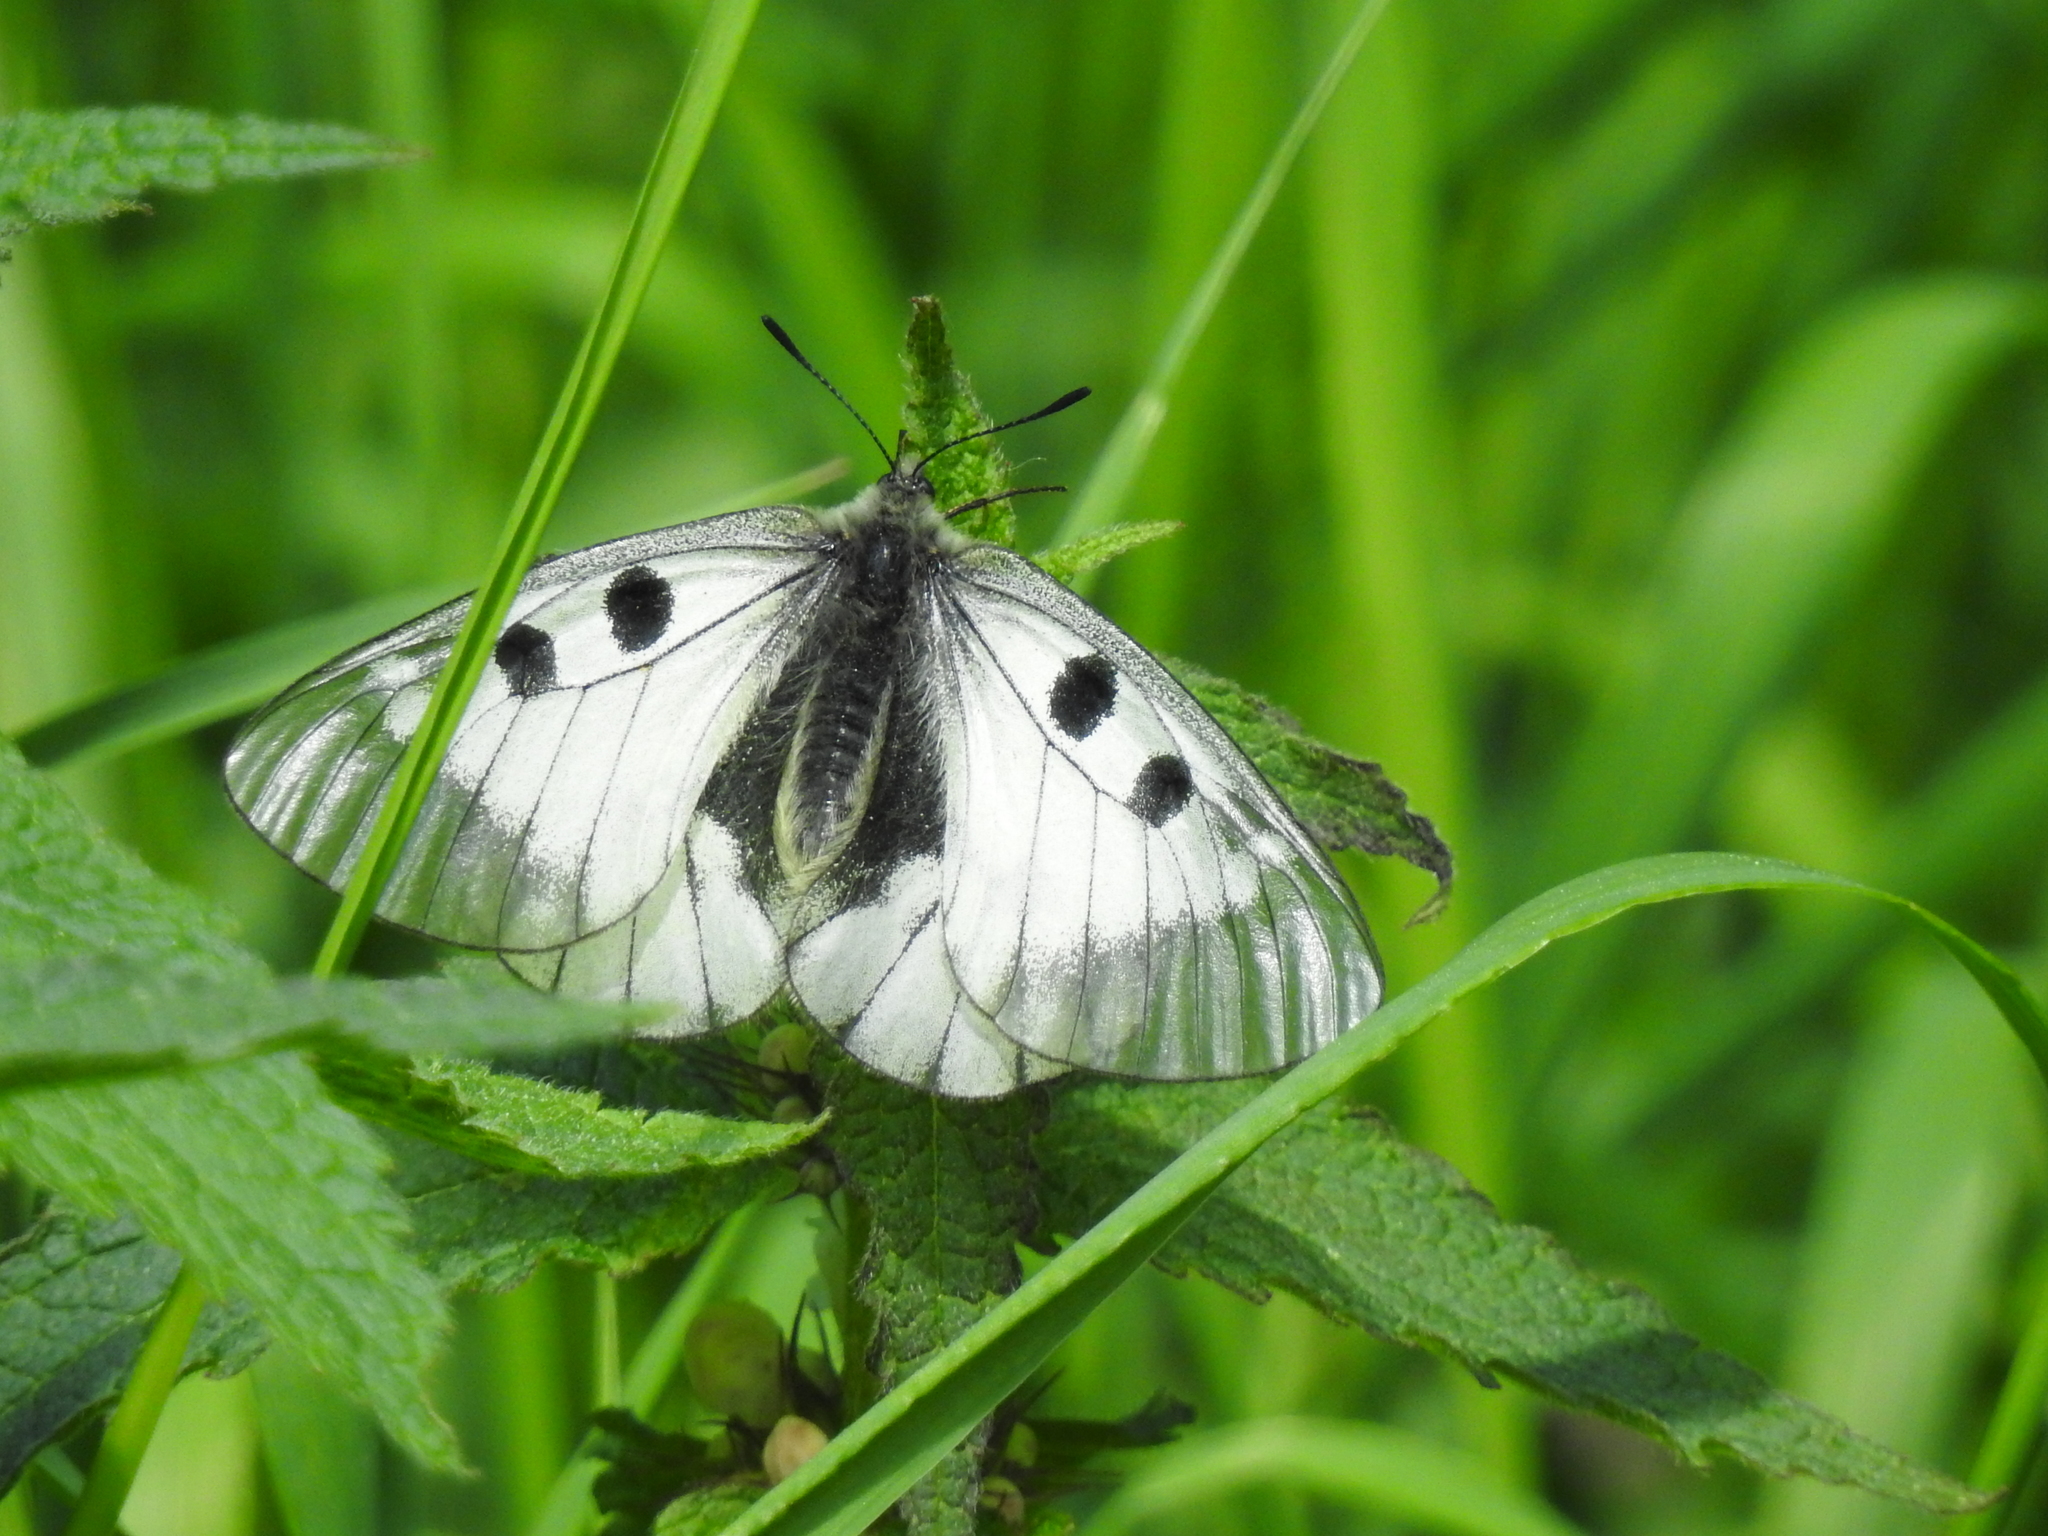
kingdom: Animalia
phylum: Arthropoda
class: Insecta
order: Lepidoptera
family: Papilionidae
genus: Parnassius
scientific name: Parnassius mnemosyne
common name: Clouded apollo
